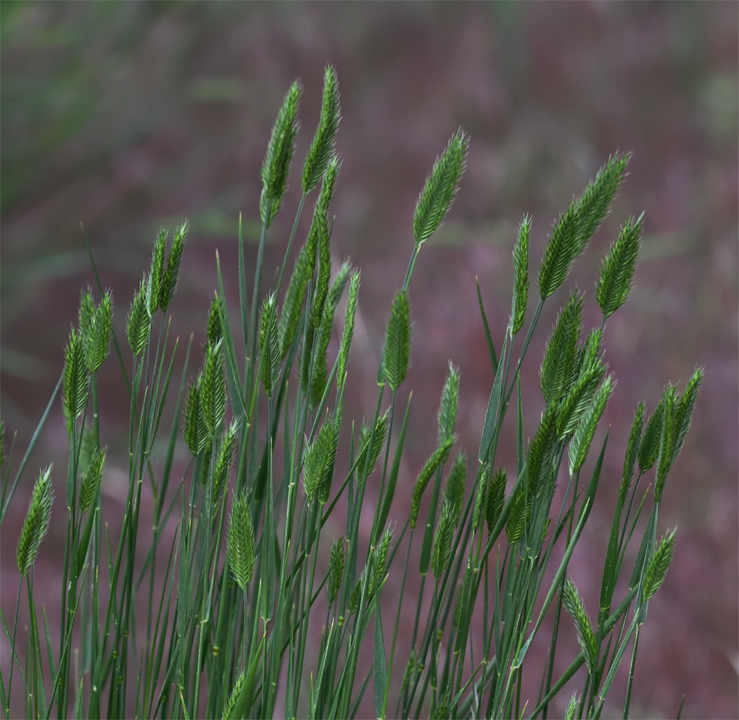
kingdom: Plantae
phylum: Tracheophyta
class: Liliopsida
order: Poales
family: Poaceae
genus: Agropyron
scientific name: Agropyron cristatum
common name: Crested wheatgrass
